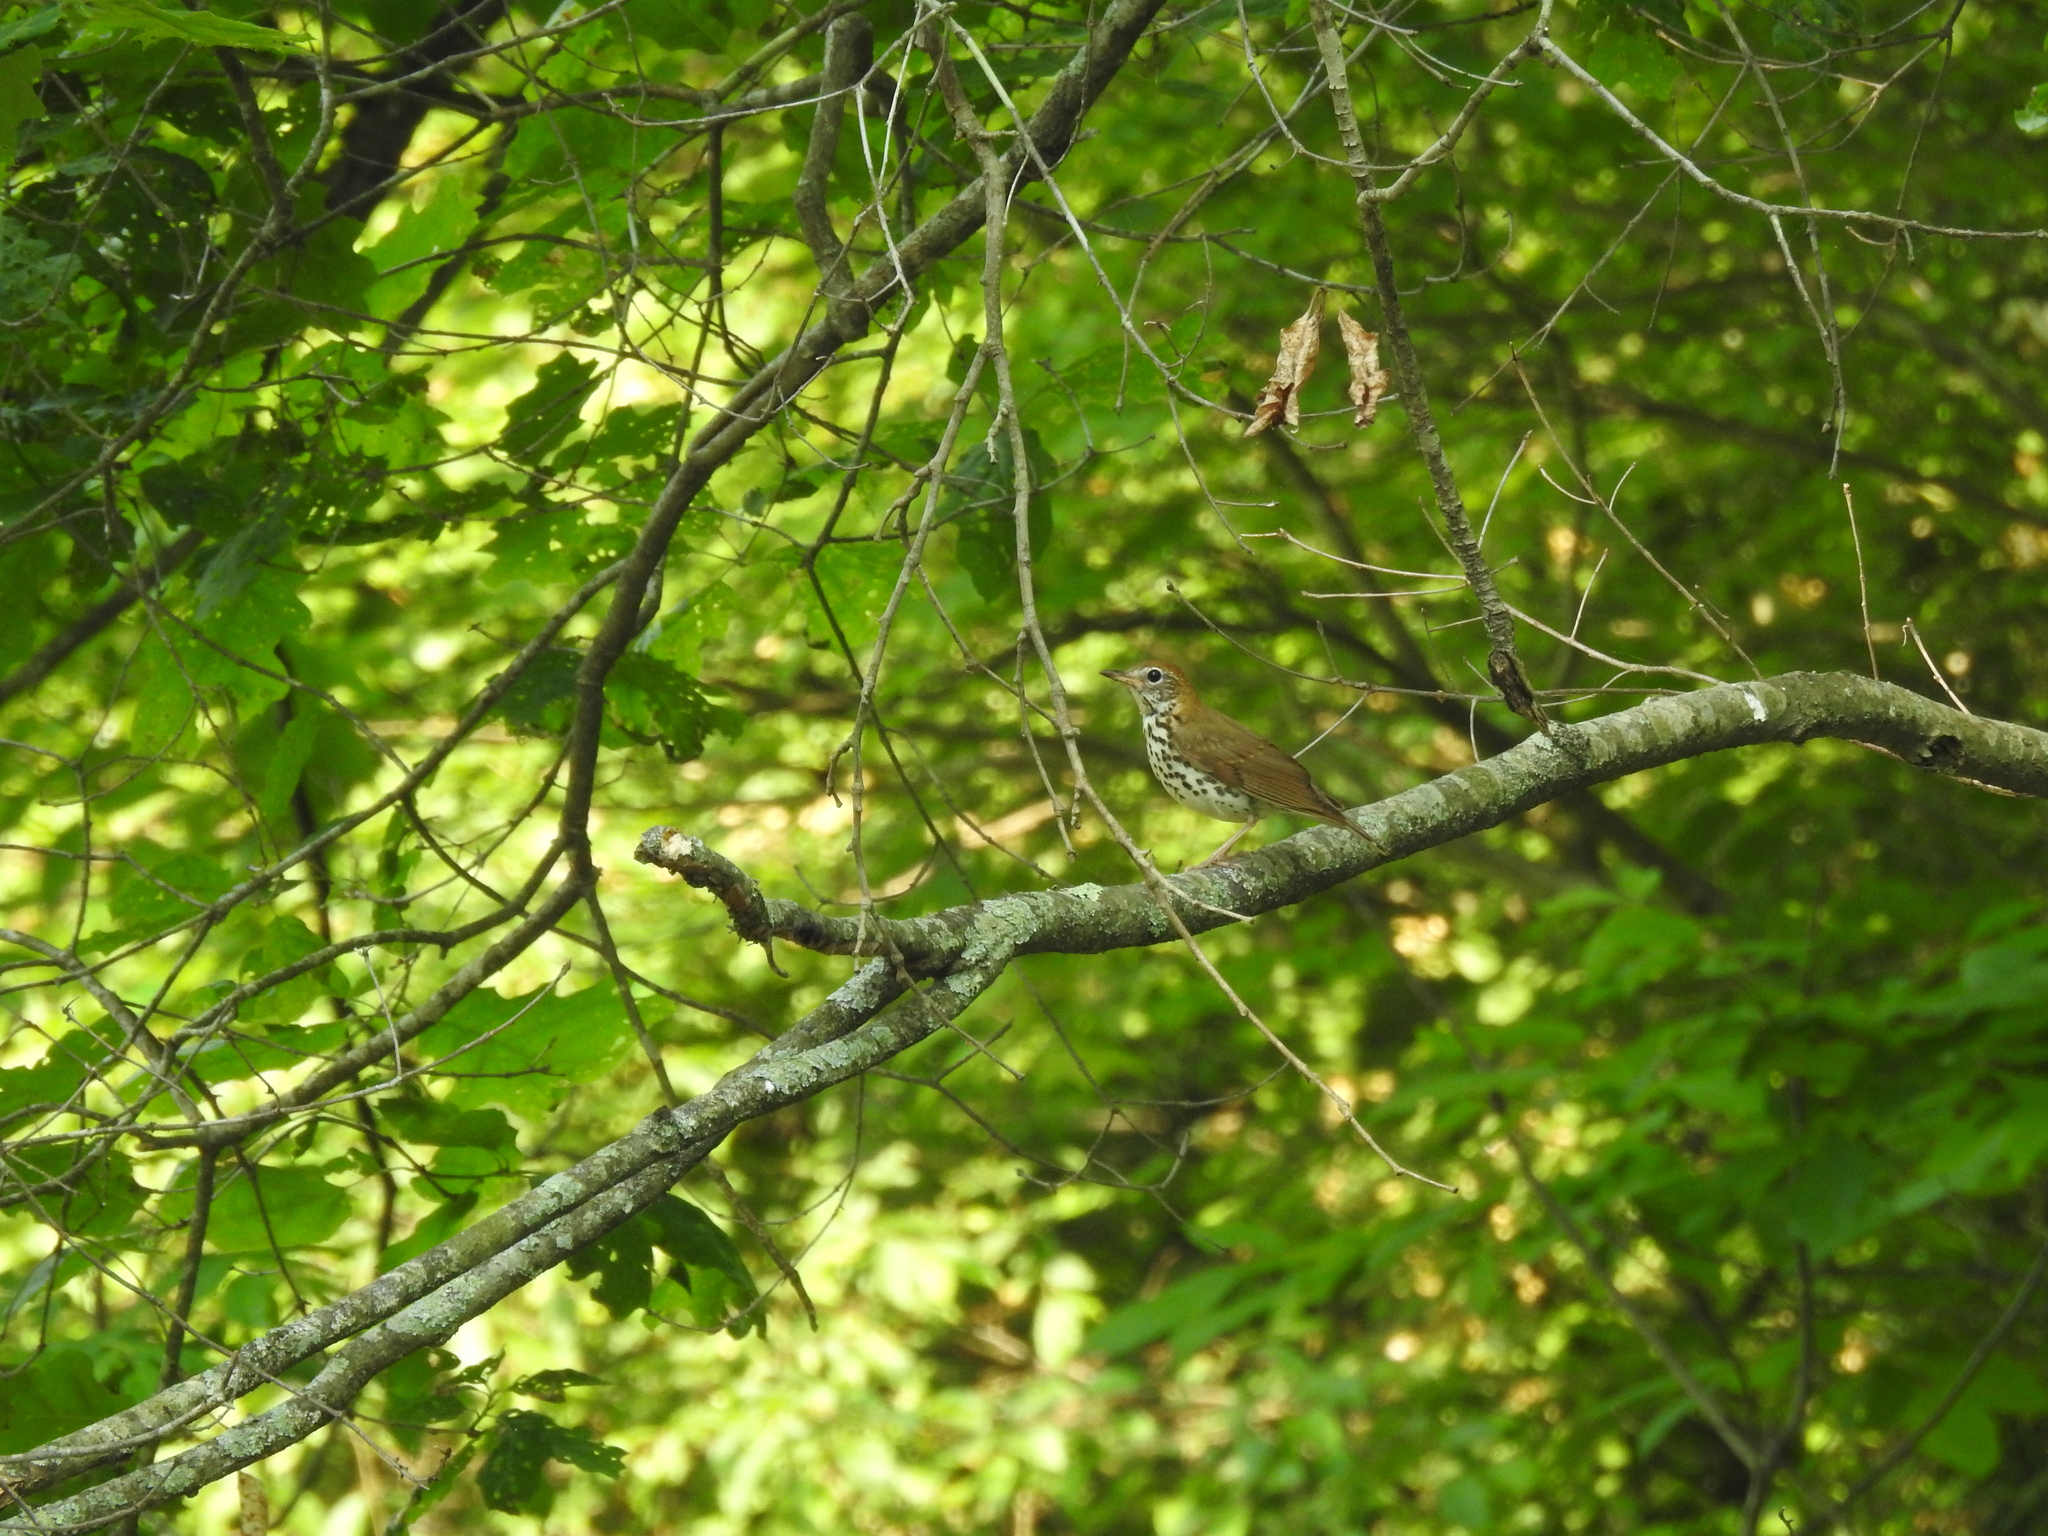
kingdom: Animalia
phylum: Chordata
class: Aves
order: Passeriformes
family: Turdidae
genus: Hylocichla
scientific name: Hylocichla mustelina
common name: Wood thrush
